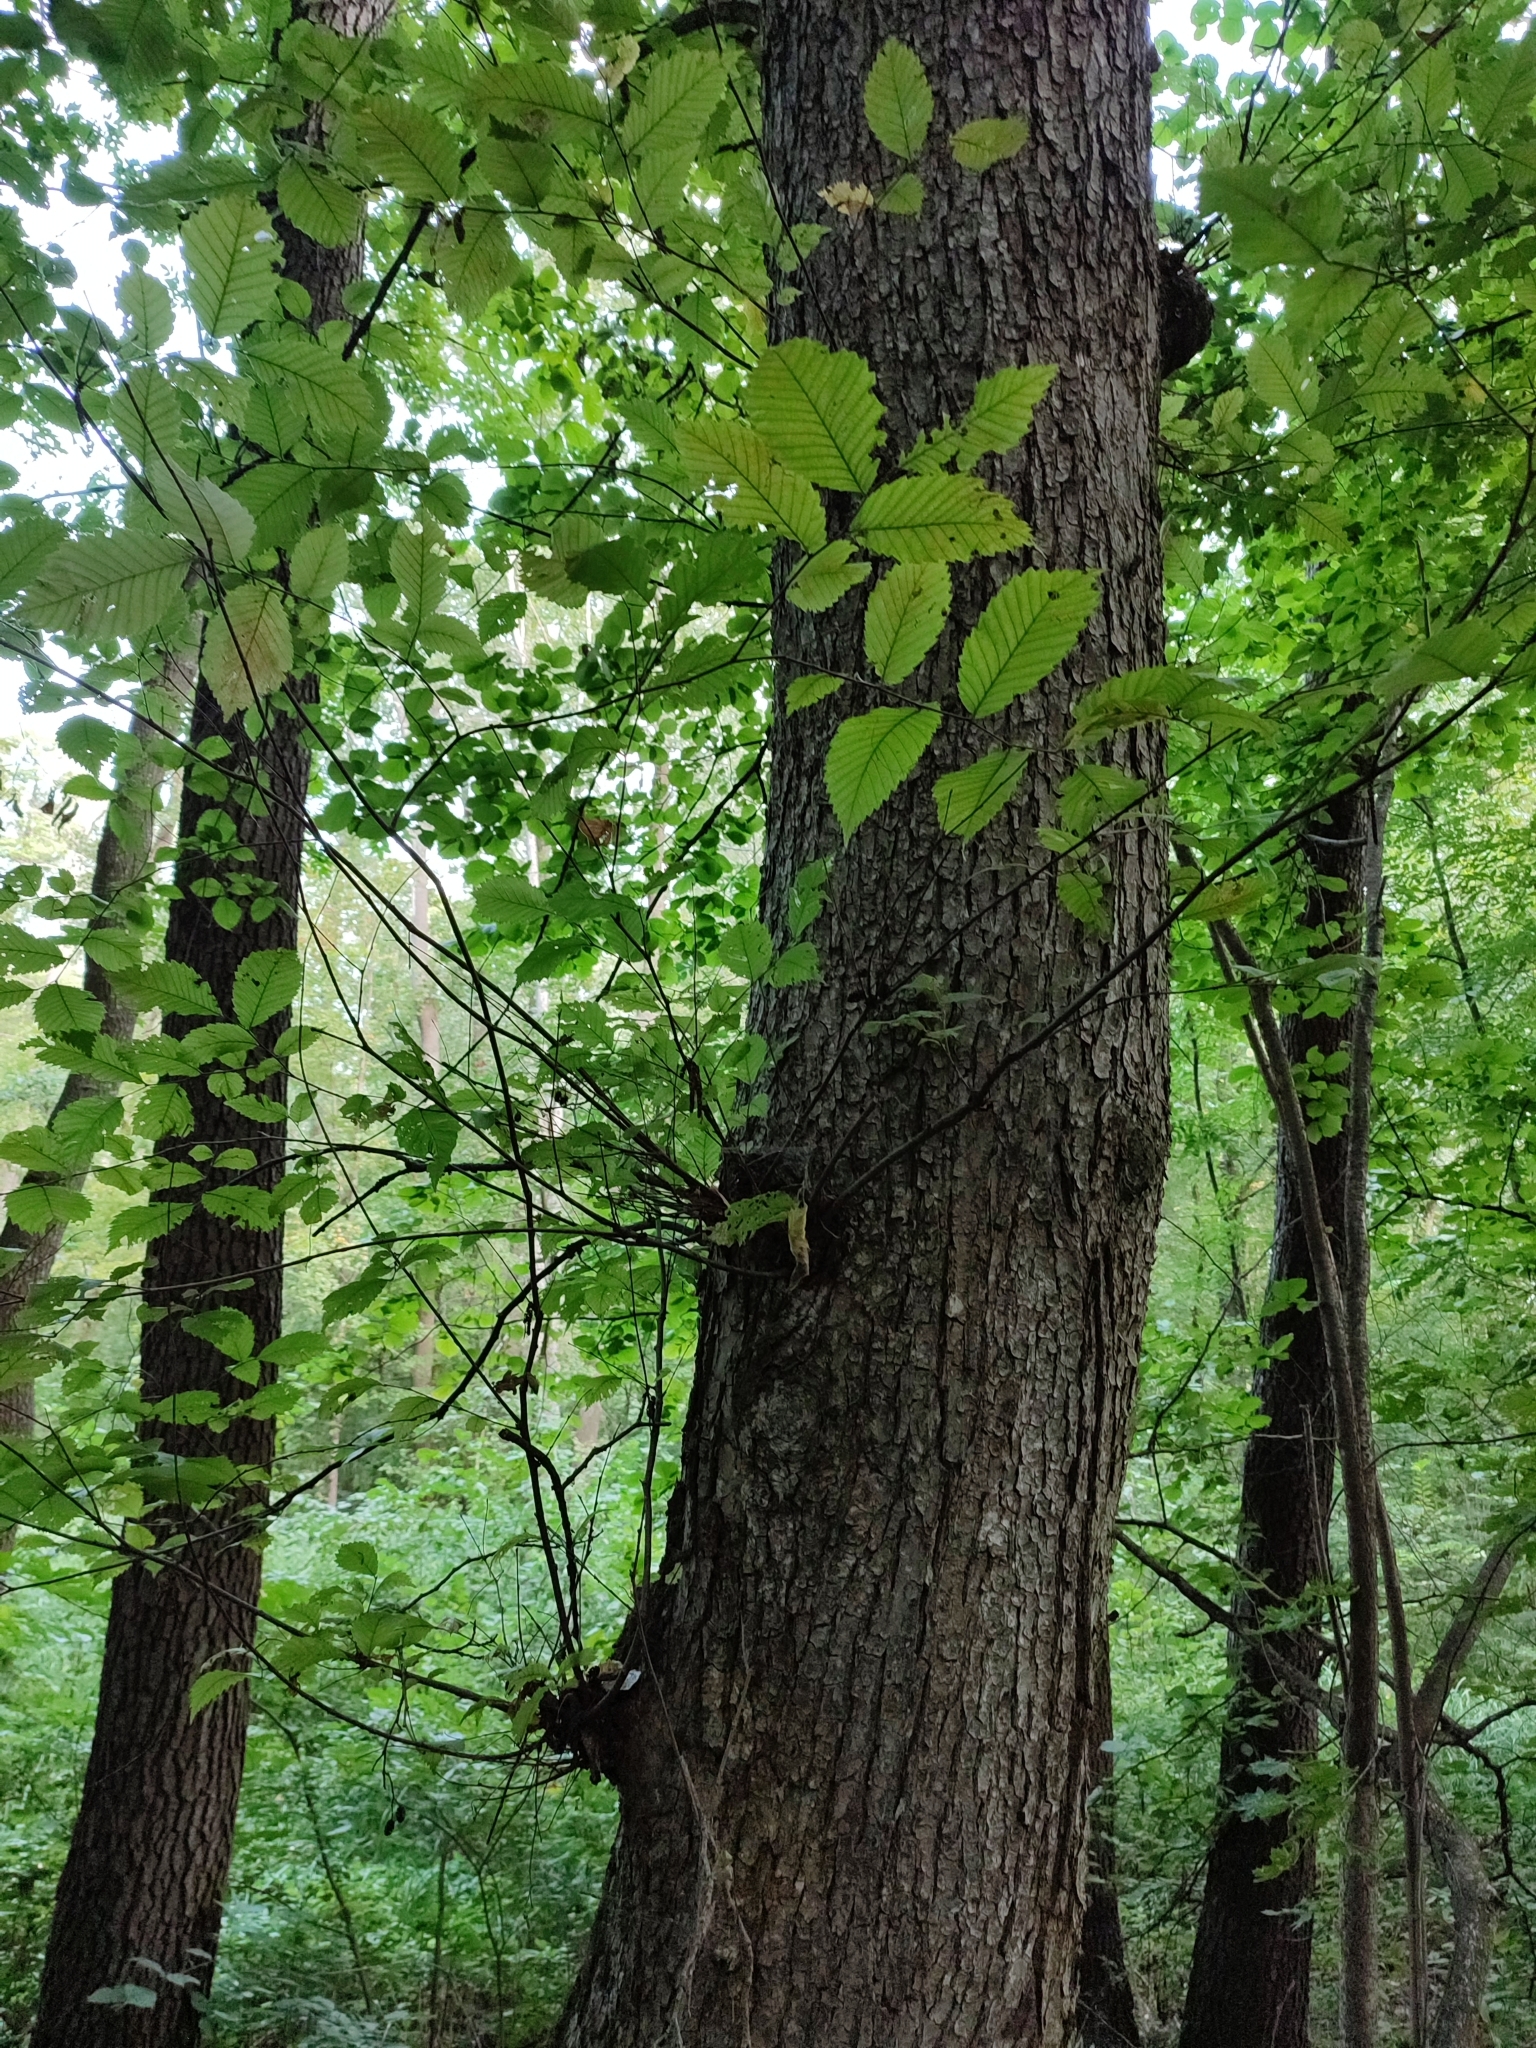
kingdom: Plantae
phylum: Tracheophyta
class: Magnoliopsida
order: Rosales
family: Ulmaceae
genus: Ulmus
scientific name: Ulmus glabra
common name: Wych elm
